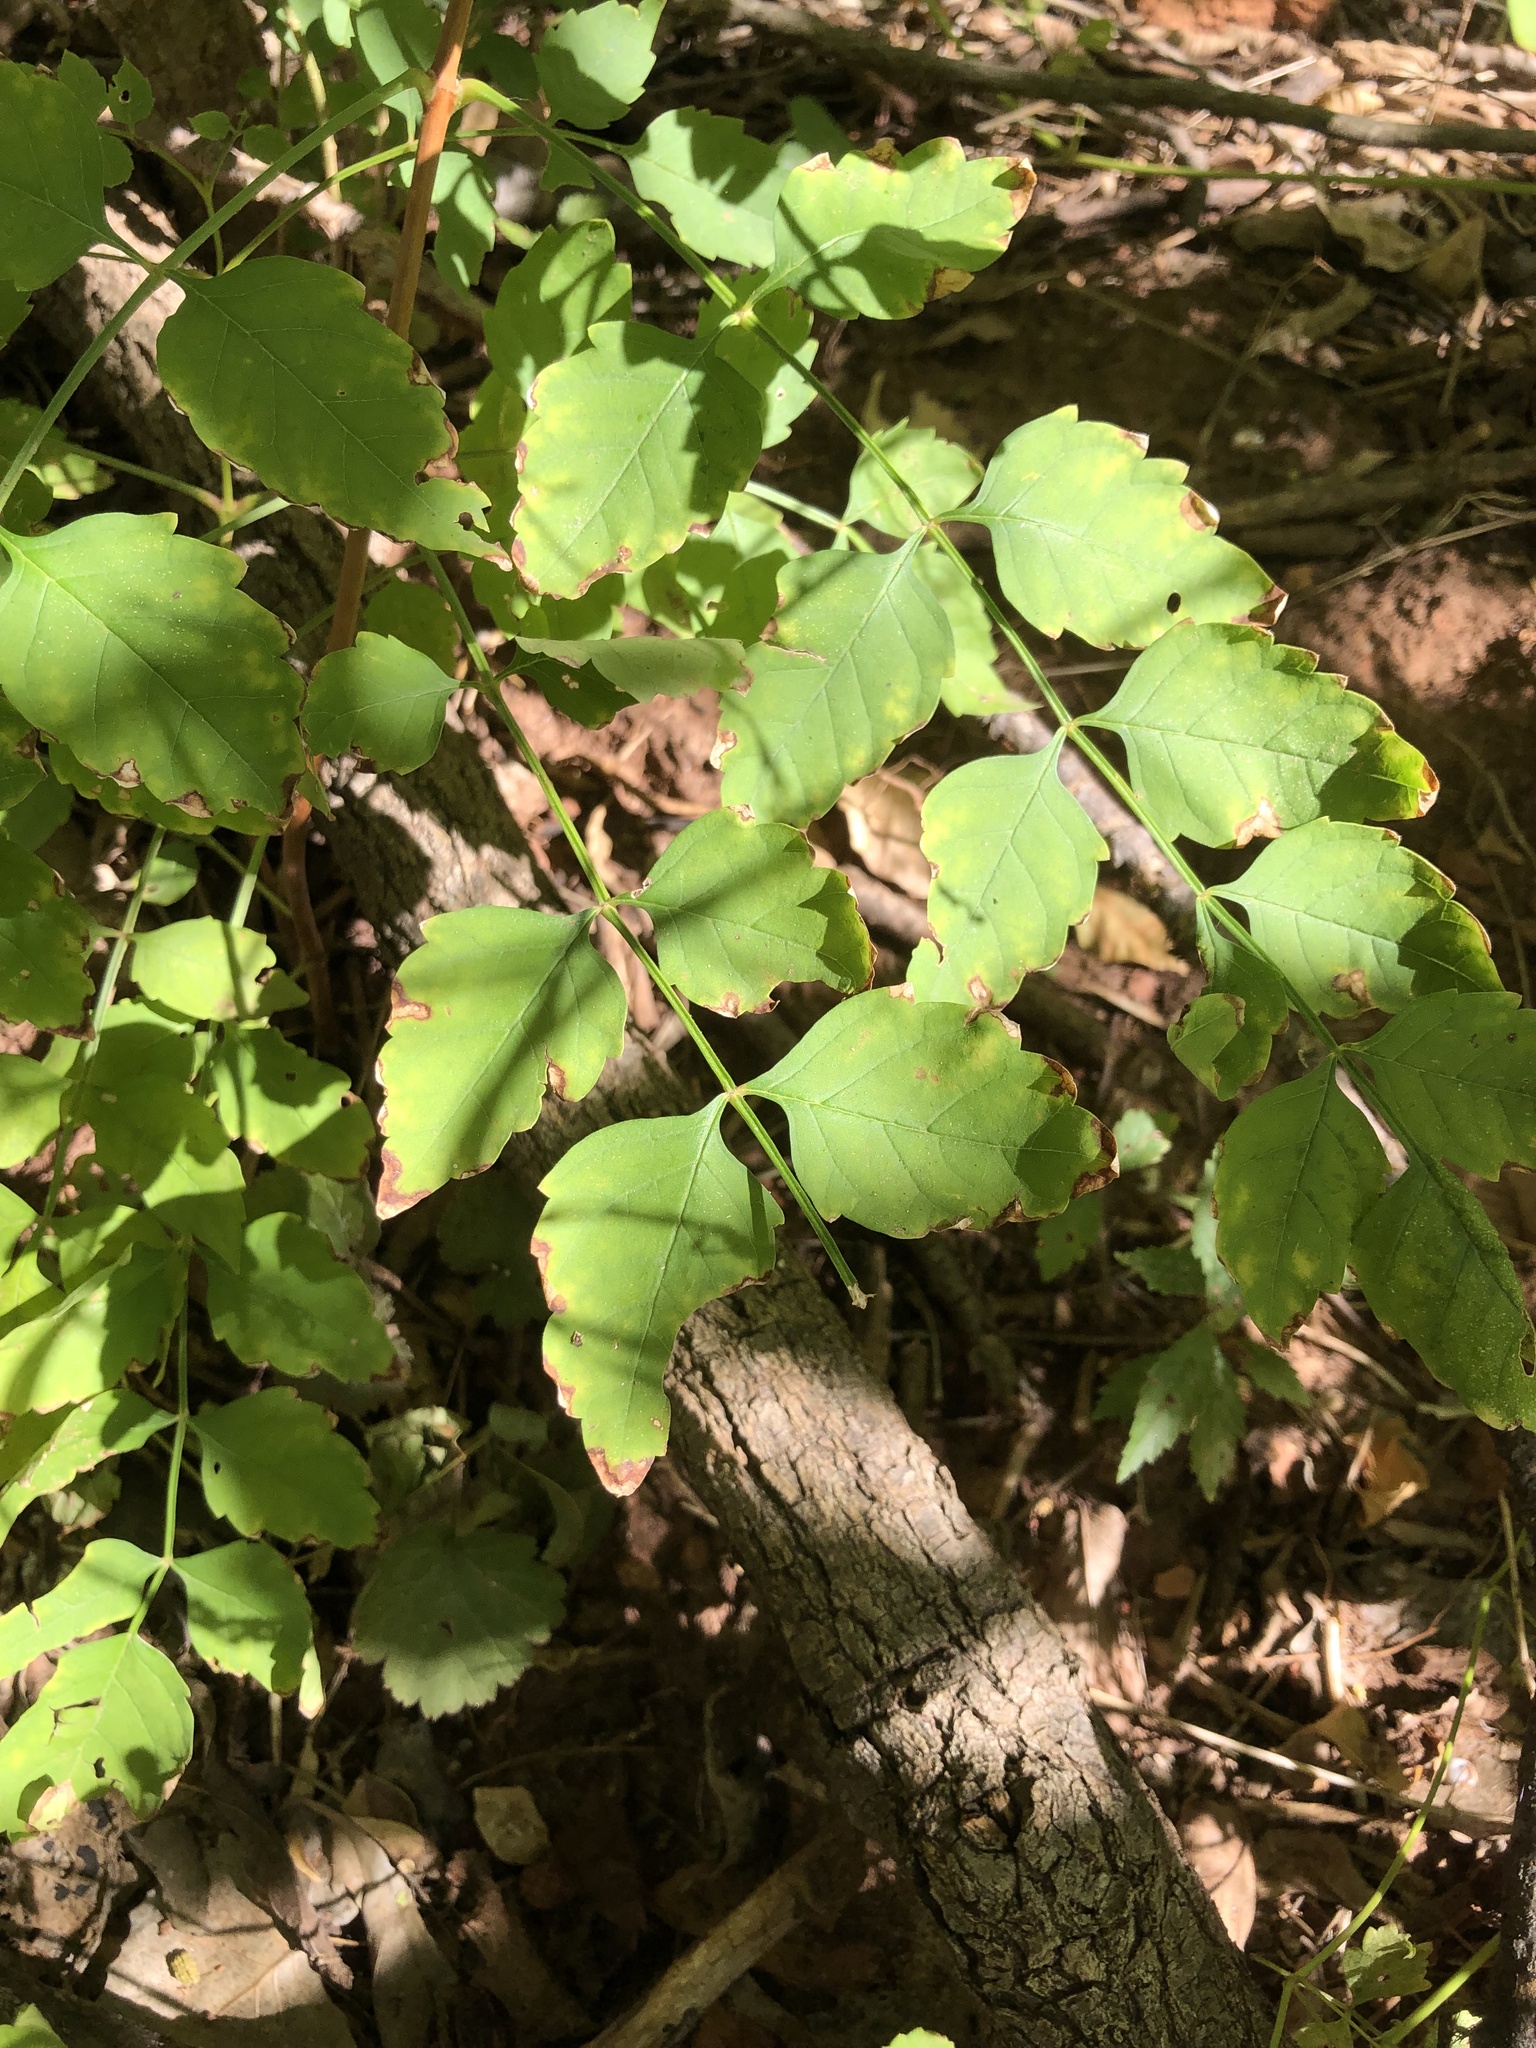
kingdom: Plantae
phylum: Tracheophyta
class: Magnoliopsida
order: Lamiales
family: Bignoniaceae
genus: Campsis
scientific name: Campsis radicans
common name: Trumpet-creeper
